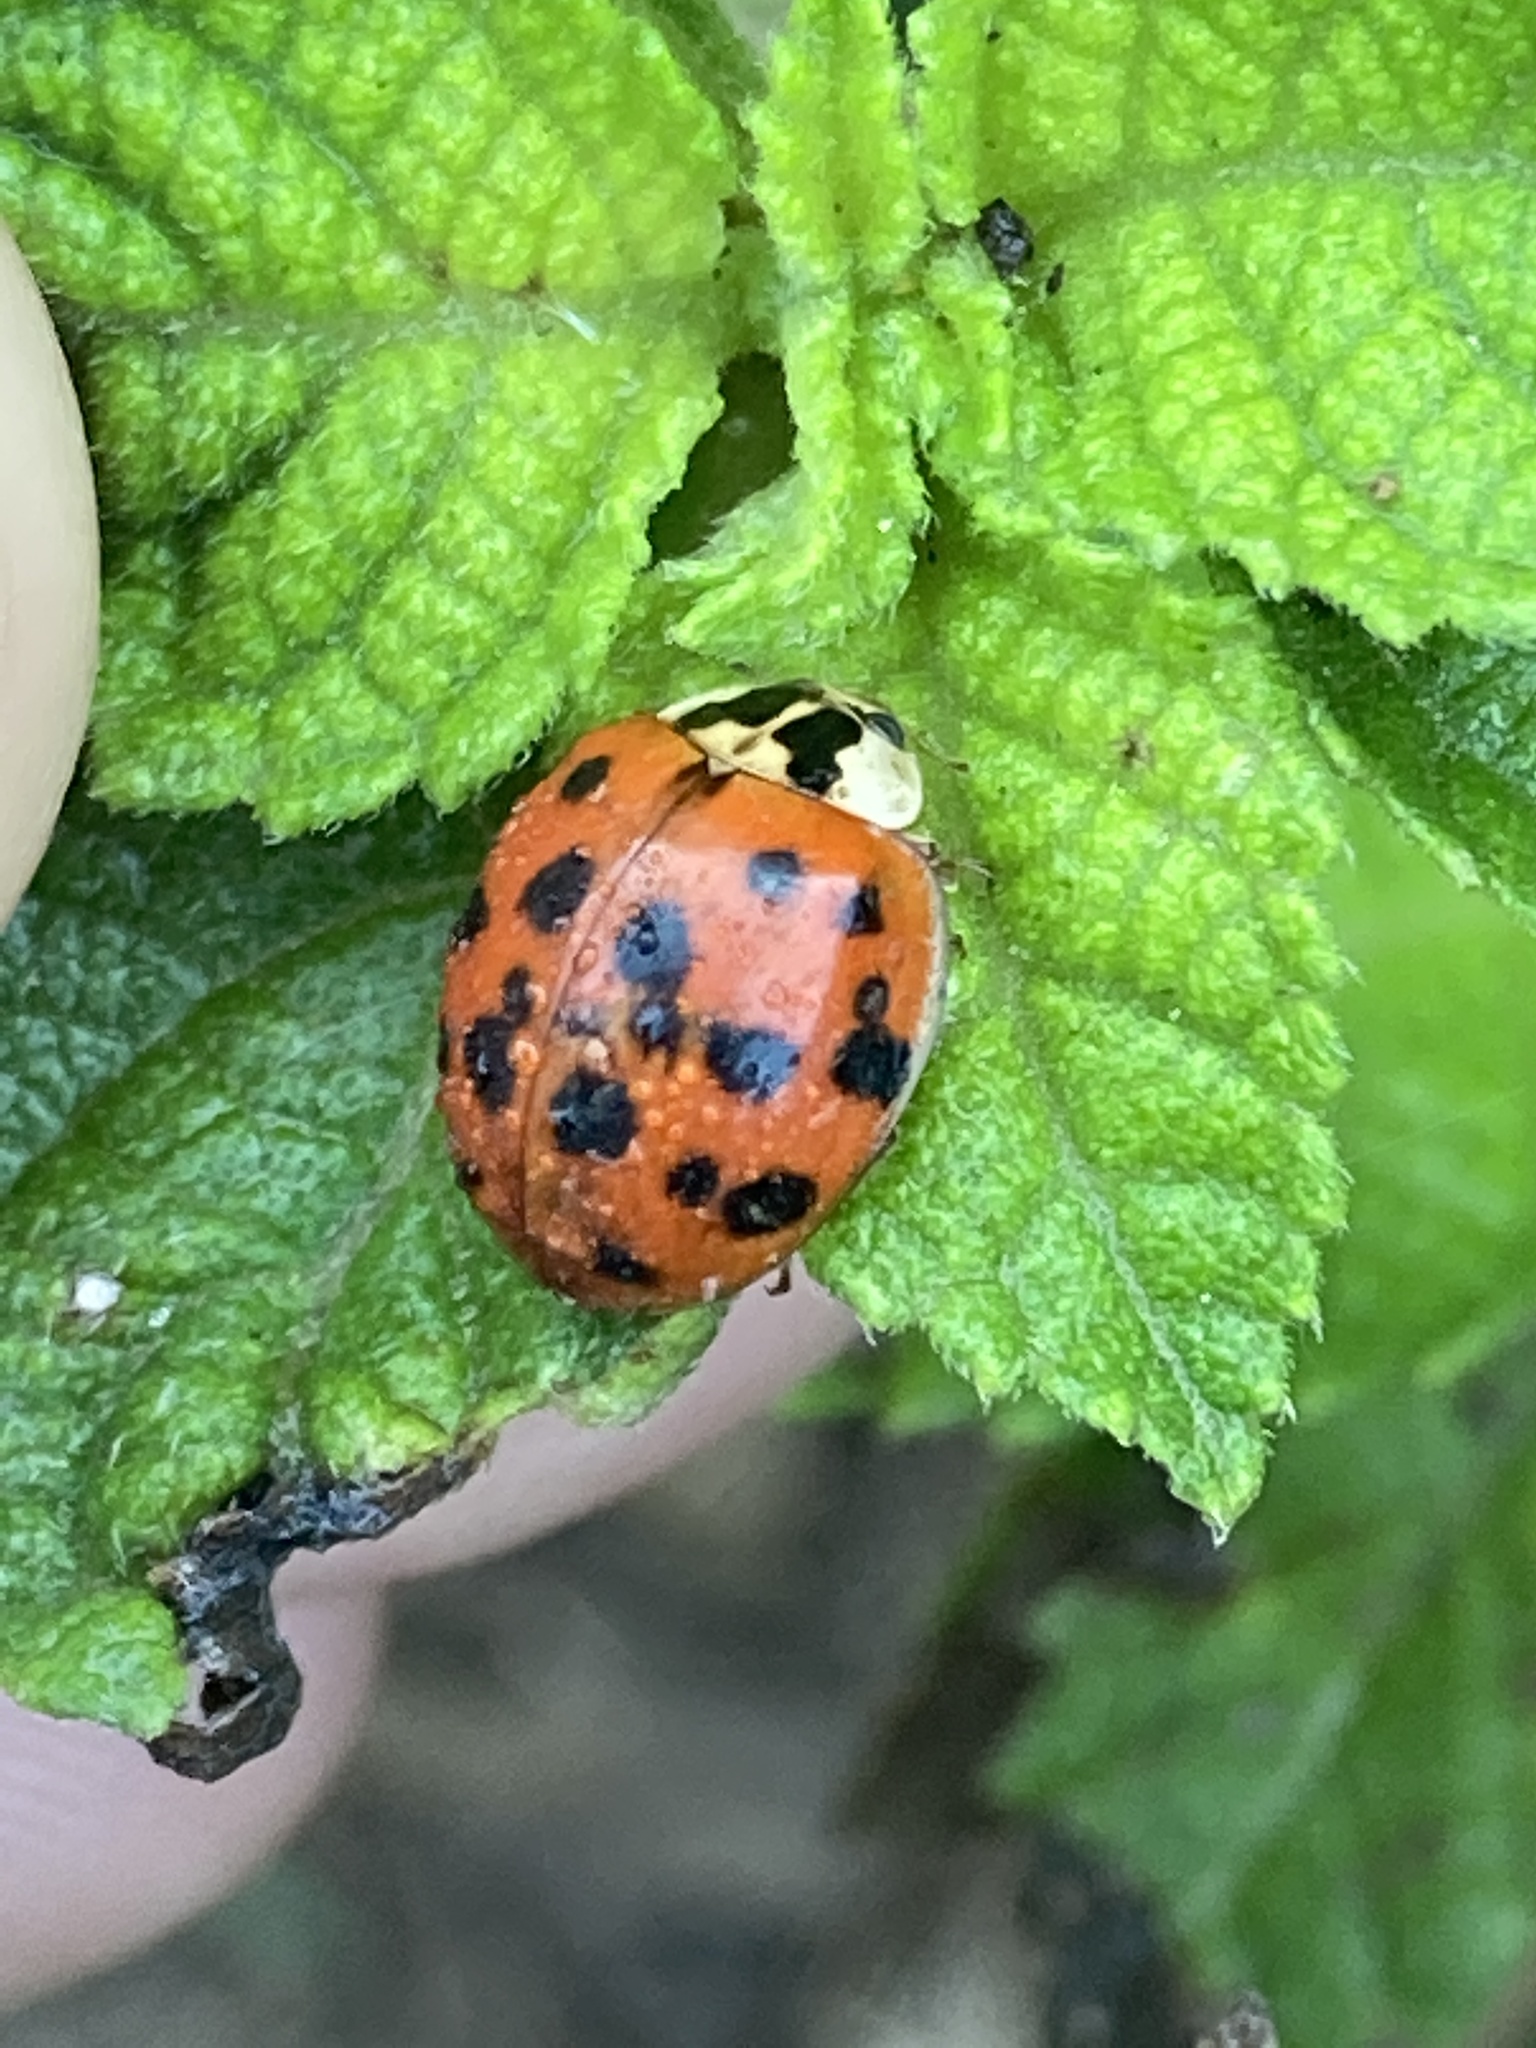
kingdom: Animalia
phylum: Arthropoda
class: Insecta
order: Coleoptera
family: Coccinellidae
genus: Harmonia
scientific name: Harmonia axyridis
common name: Harlequin ladybird
